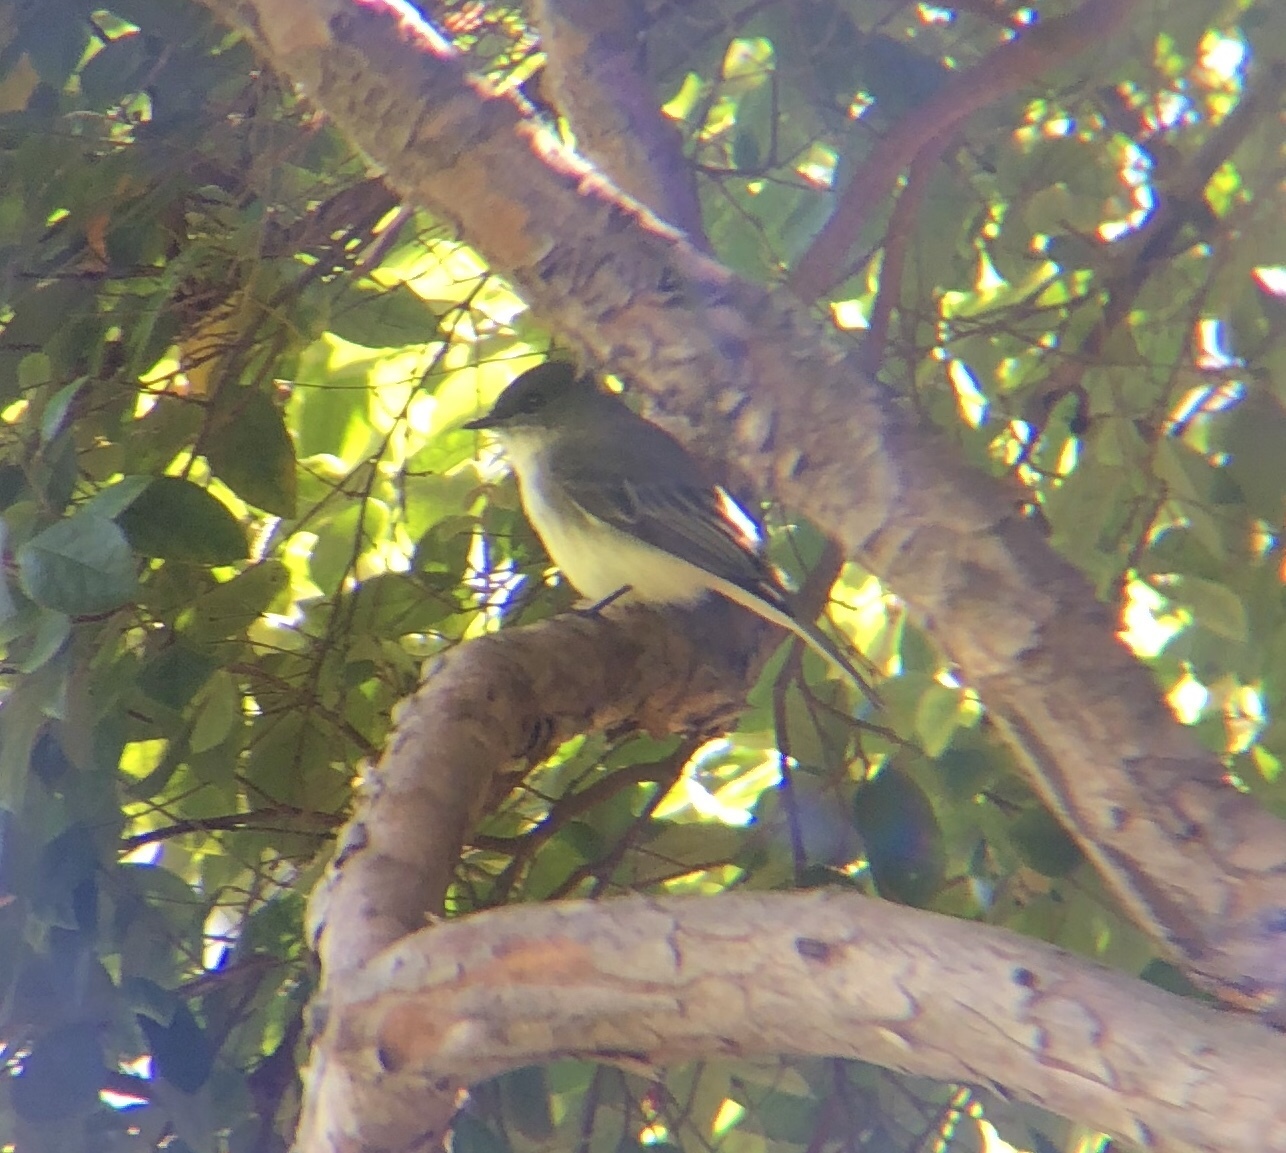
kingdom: Animalia
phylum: Chordata
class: Aves
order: Passeriformes
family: Tyrannidae
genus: Sayornis
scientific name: Sayornis phoebe
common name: Eastern phoebe
